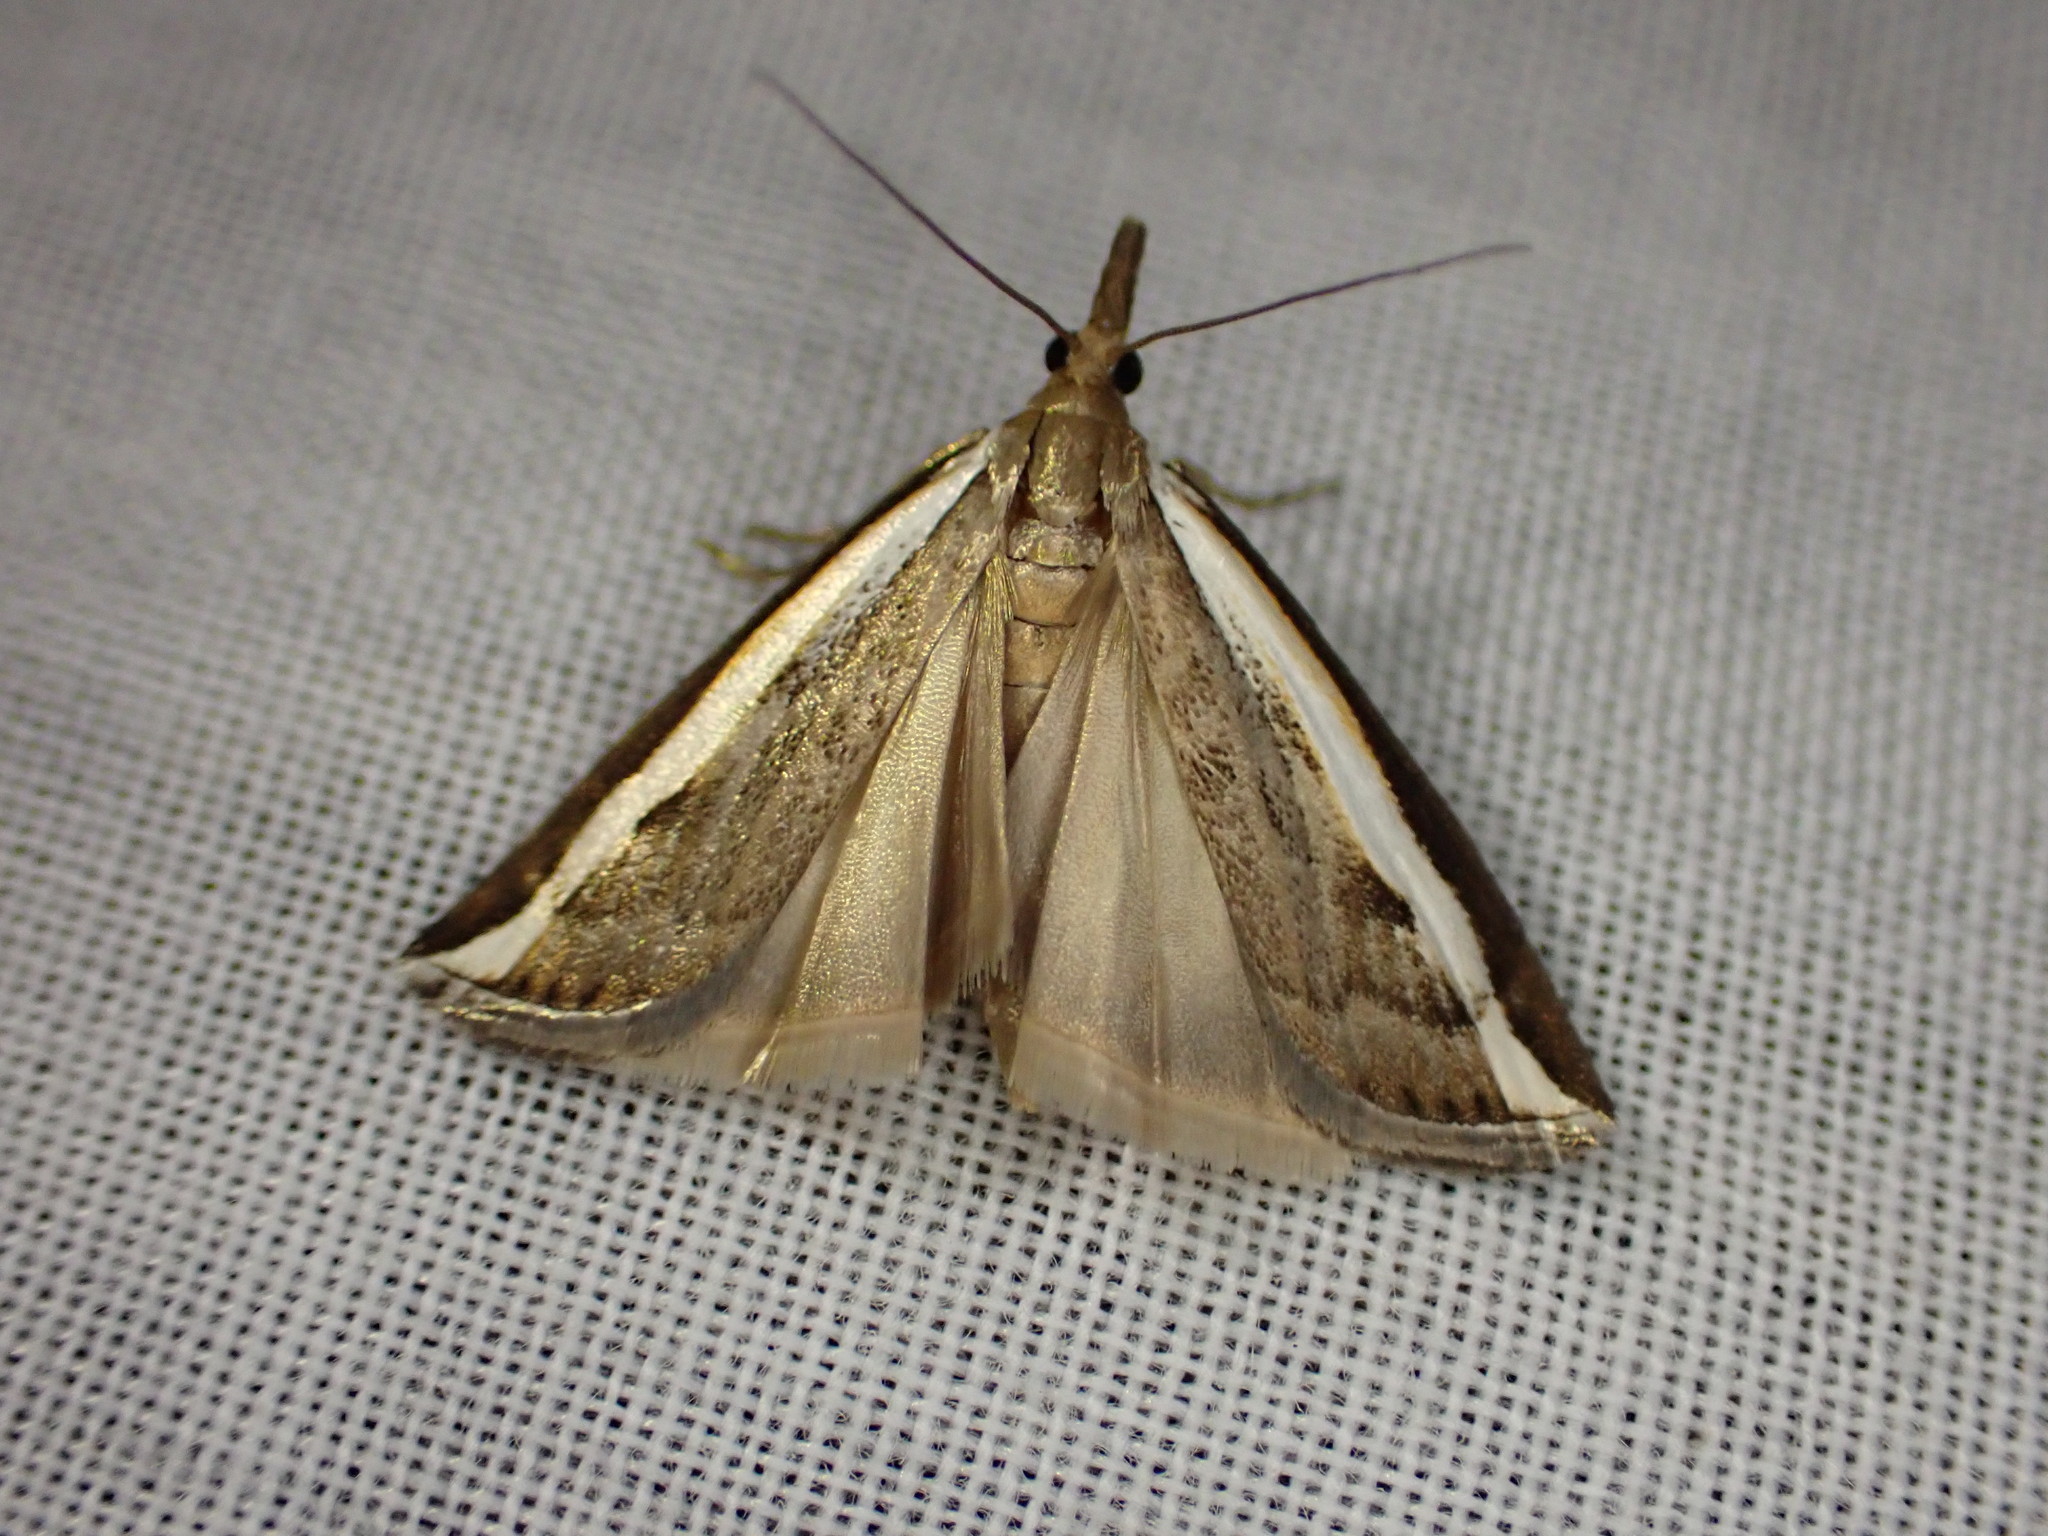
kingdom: Animalia
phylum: Arthropoda
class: Insecta
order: Lepidoptera
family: Crambidae
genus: Orocrambus
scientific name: Orocrambus flexuosellus
